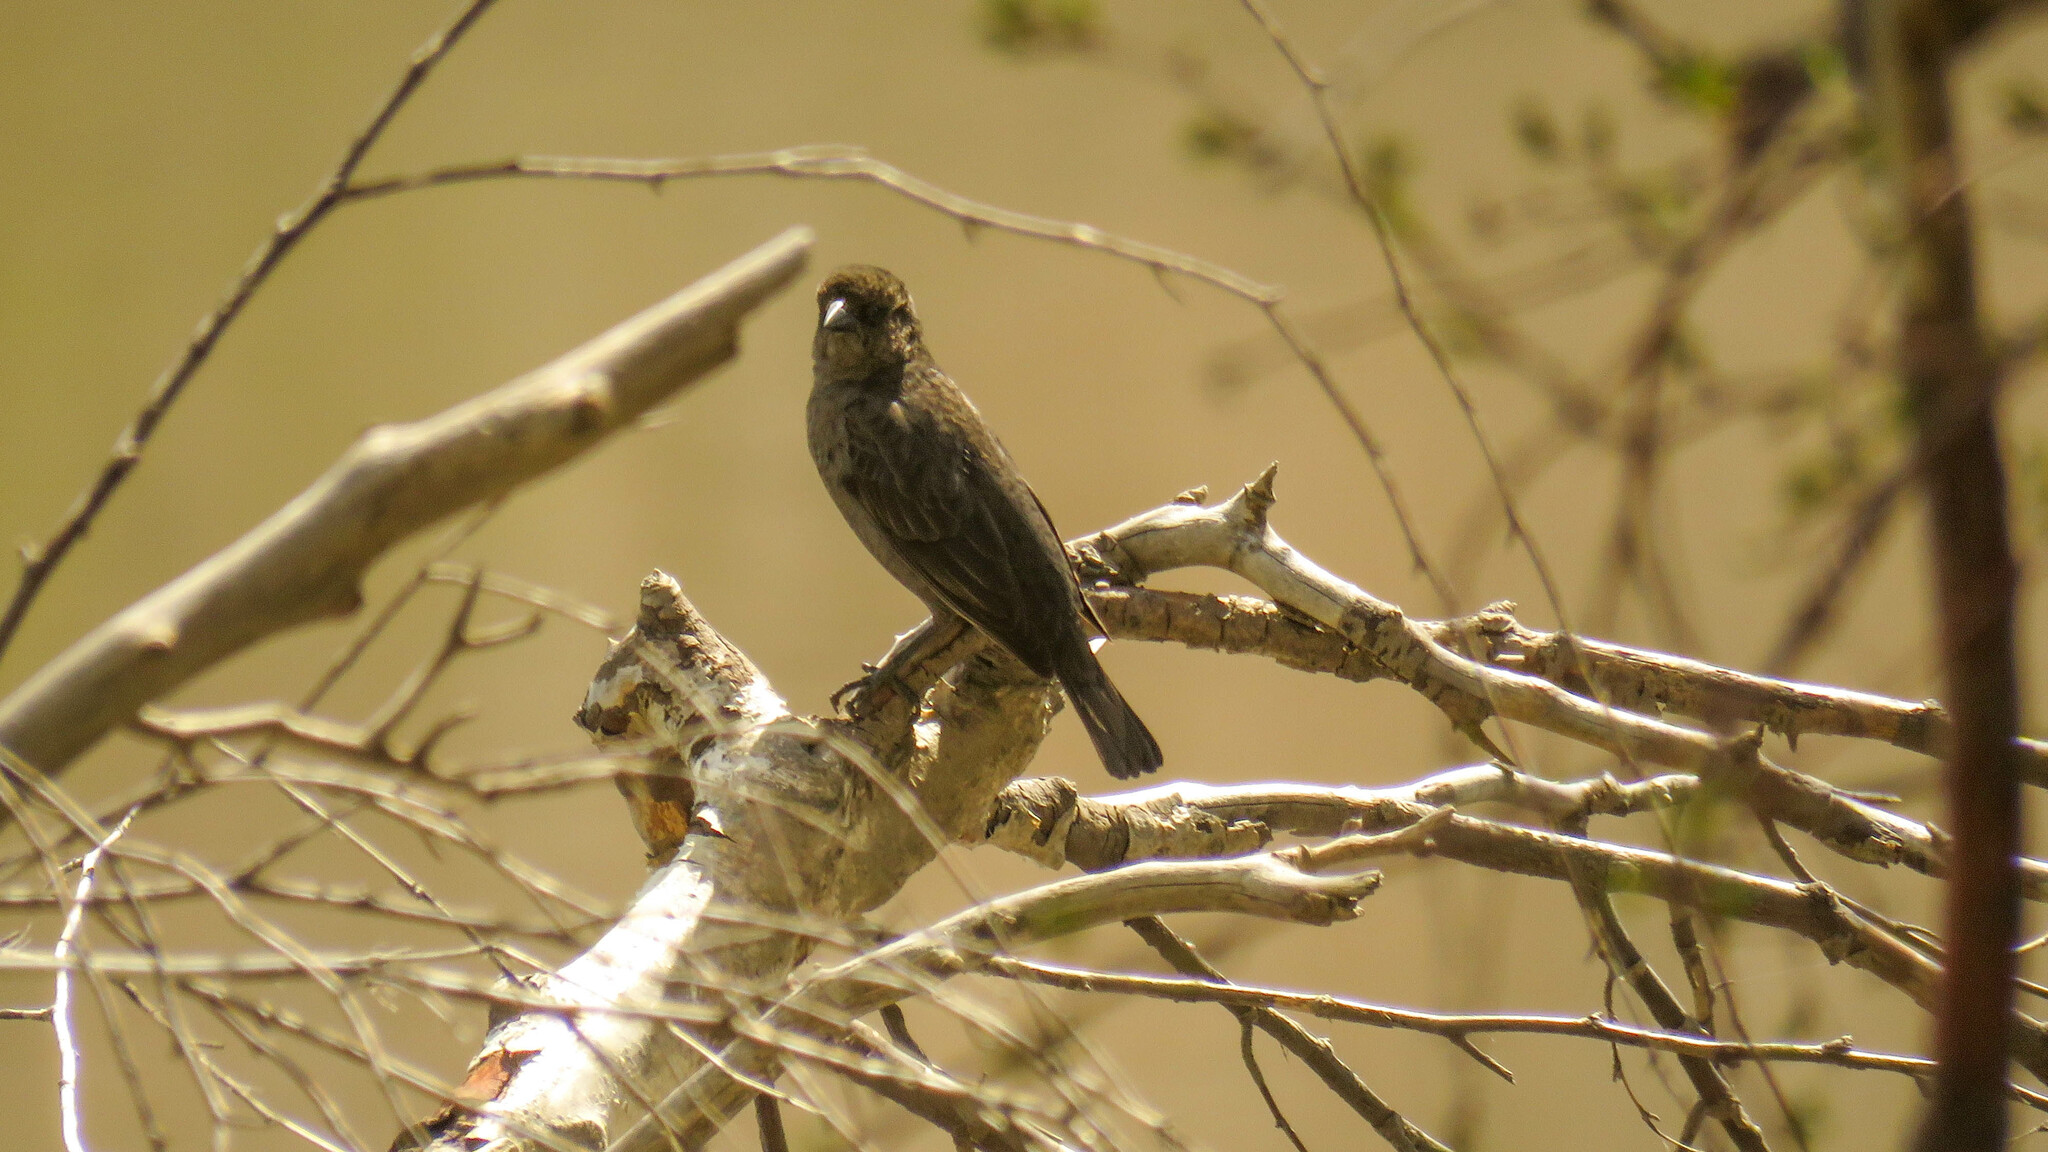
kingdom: Animalia
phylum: Chordata
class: Aves
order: Passeriformes
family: Icteridae
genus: Molothrus
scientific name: Molothrus bonariensis
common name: Shiny cowbird
